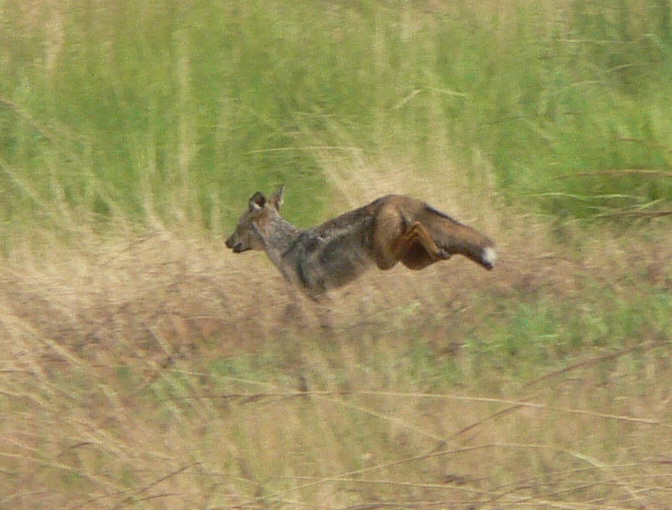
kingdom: Animalia
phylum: Chordata
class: Mammalia
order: Carnivora
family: Canidae
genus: Lupulella
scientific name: Lupulella
